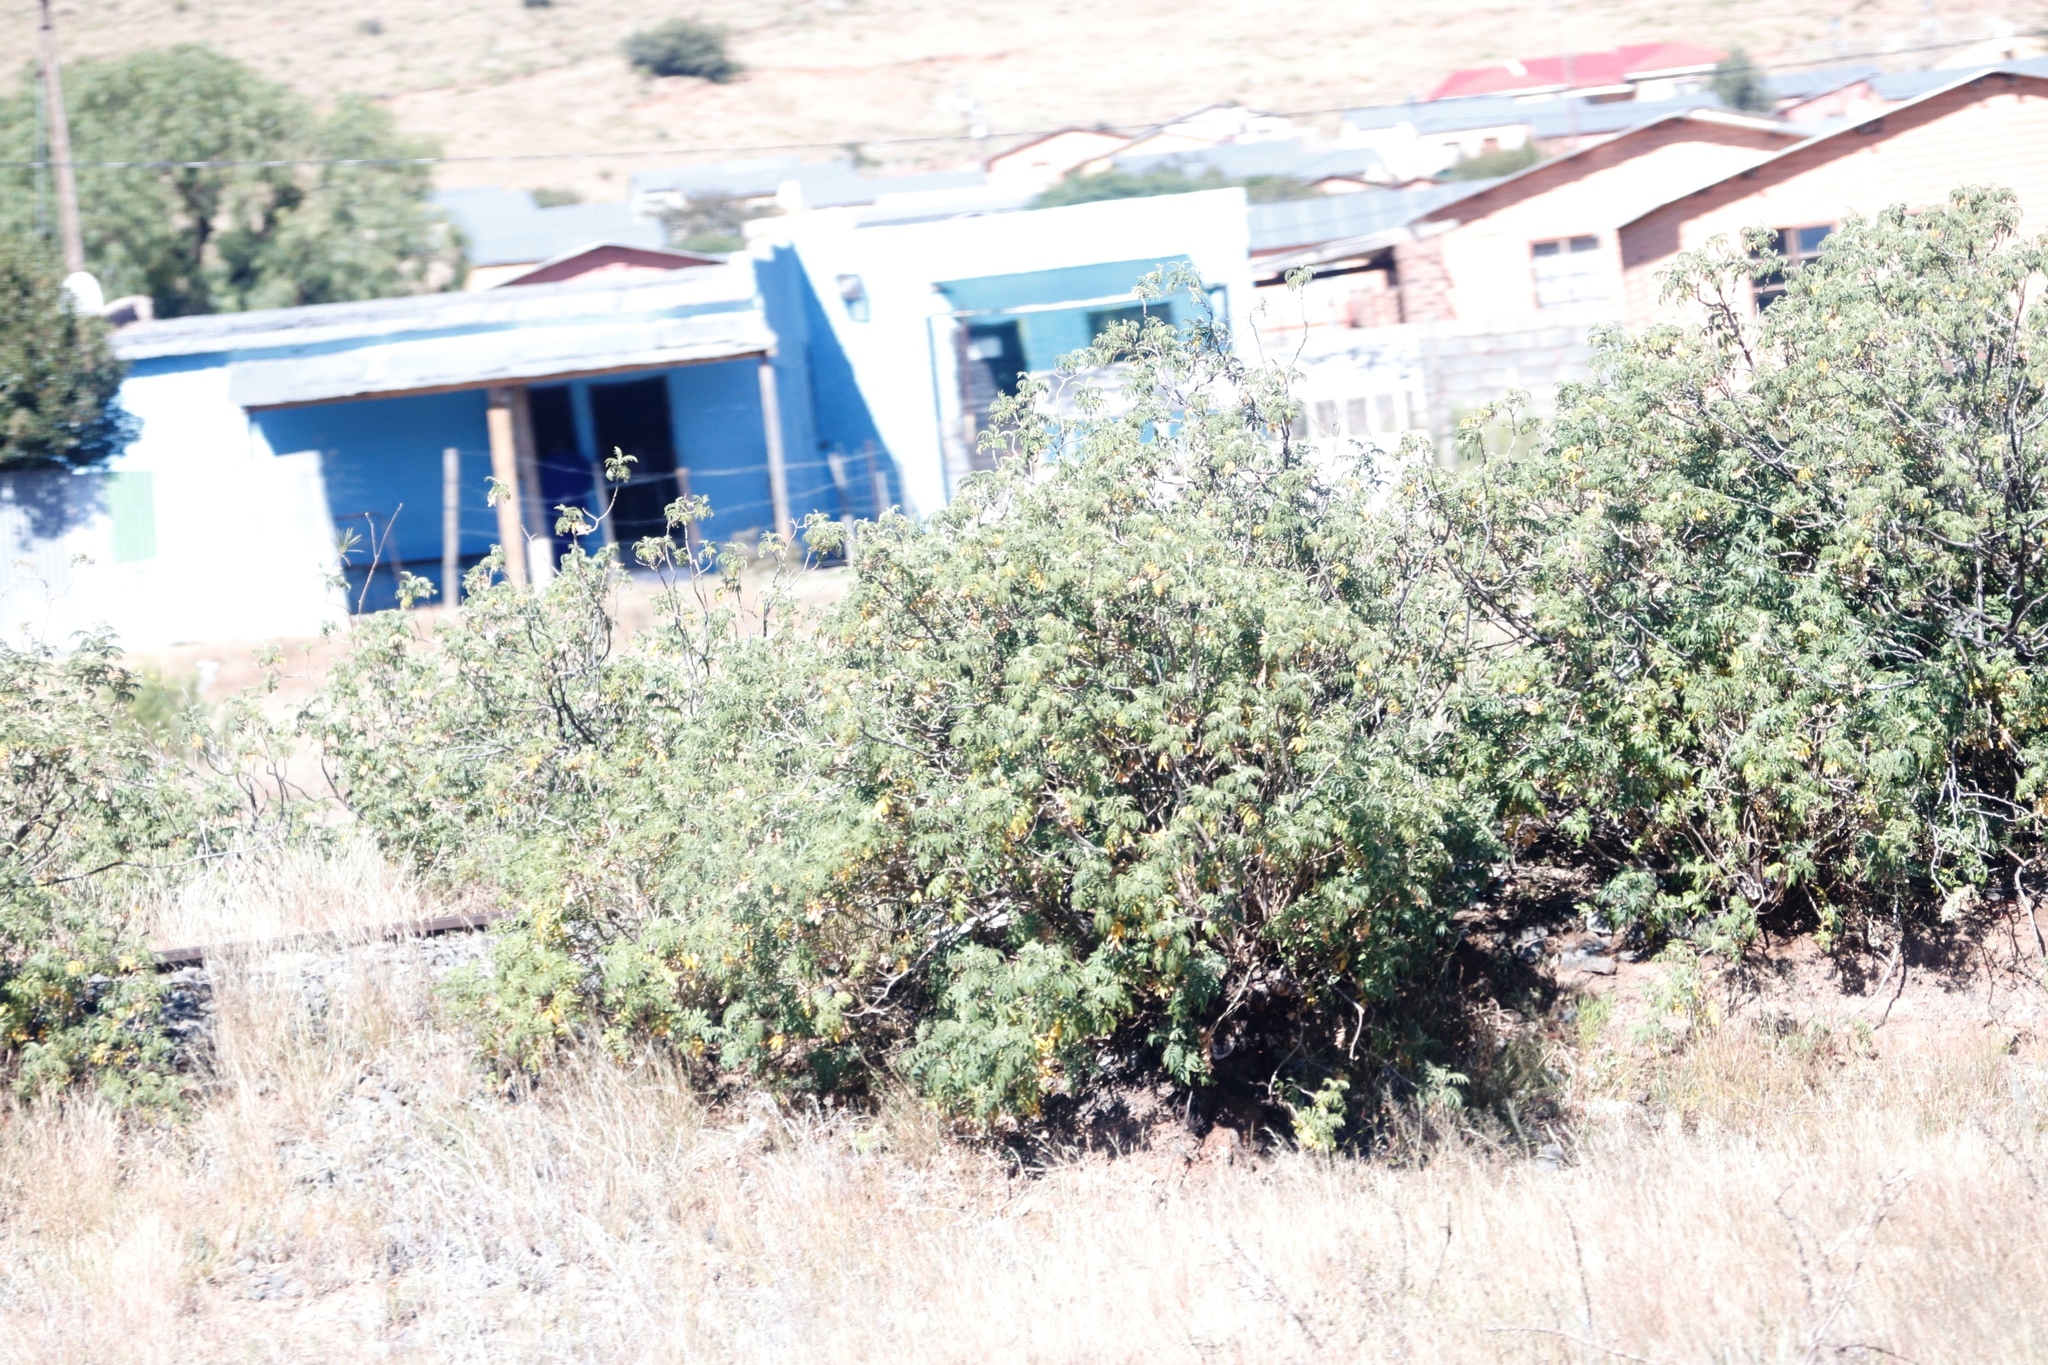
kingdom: Plantae
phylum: Tracheophyta
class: Magnoliopsida
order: Geraniales
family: Melianthaceae
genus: Melianthus
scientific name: Melianthus comosus
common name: Touch-me-not
